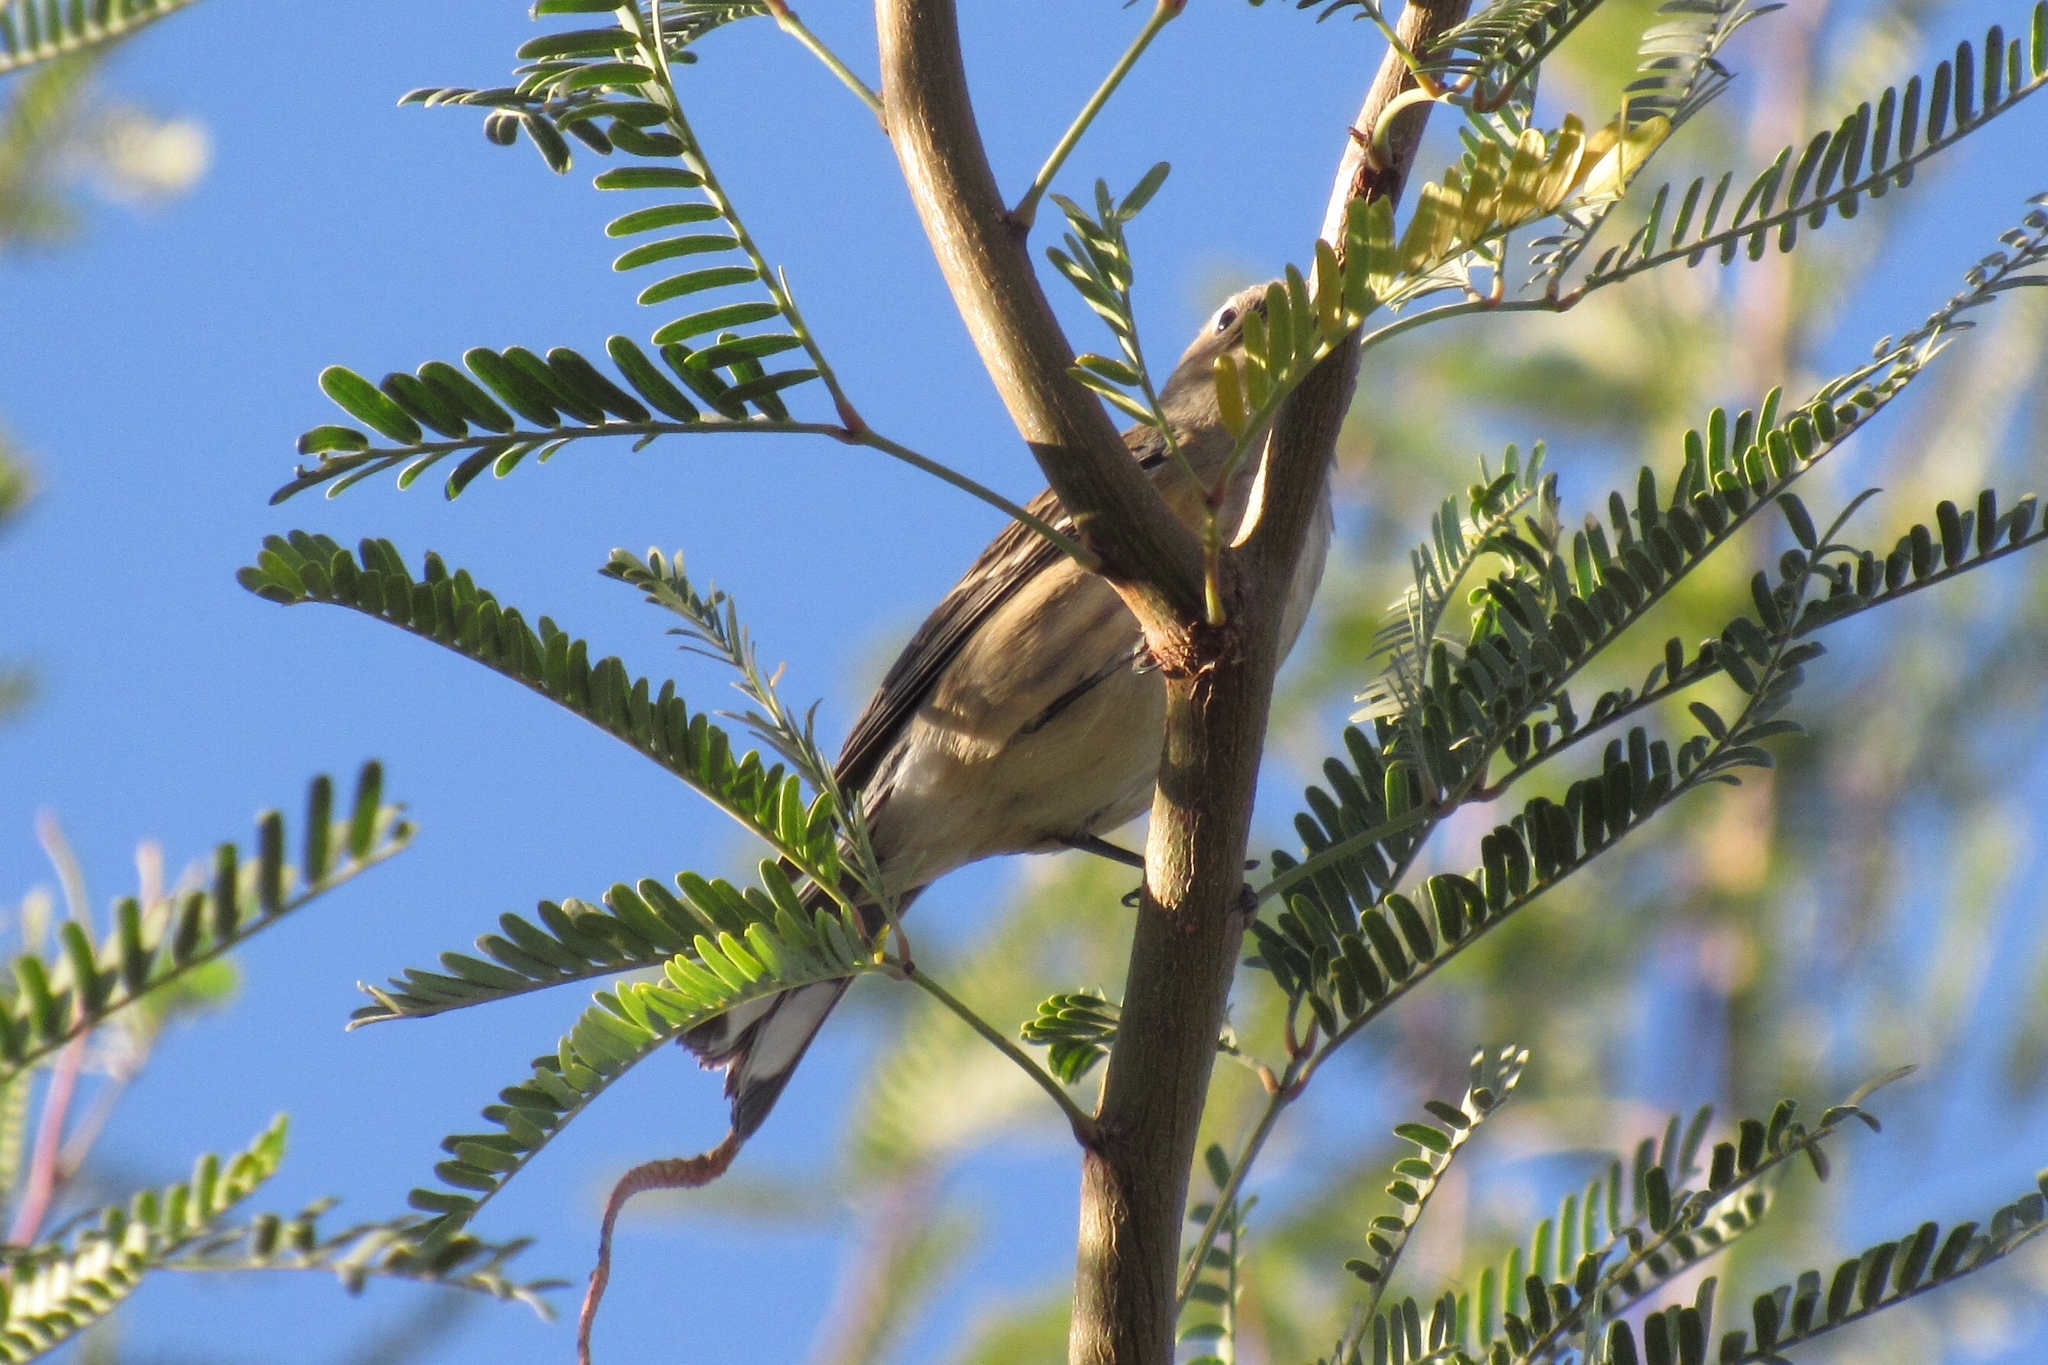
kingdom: Animalia
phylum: Chordata
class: Aves
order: Passeriformes
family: Parulidae
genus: Setophaga
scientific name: Setophaga coronata
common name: Myrtle warbler
